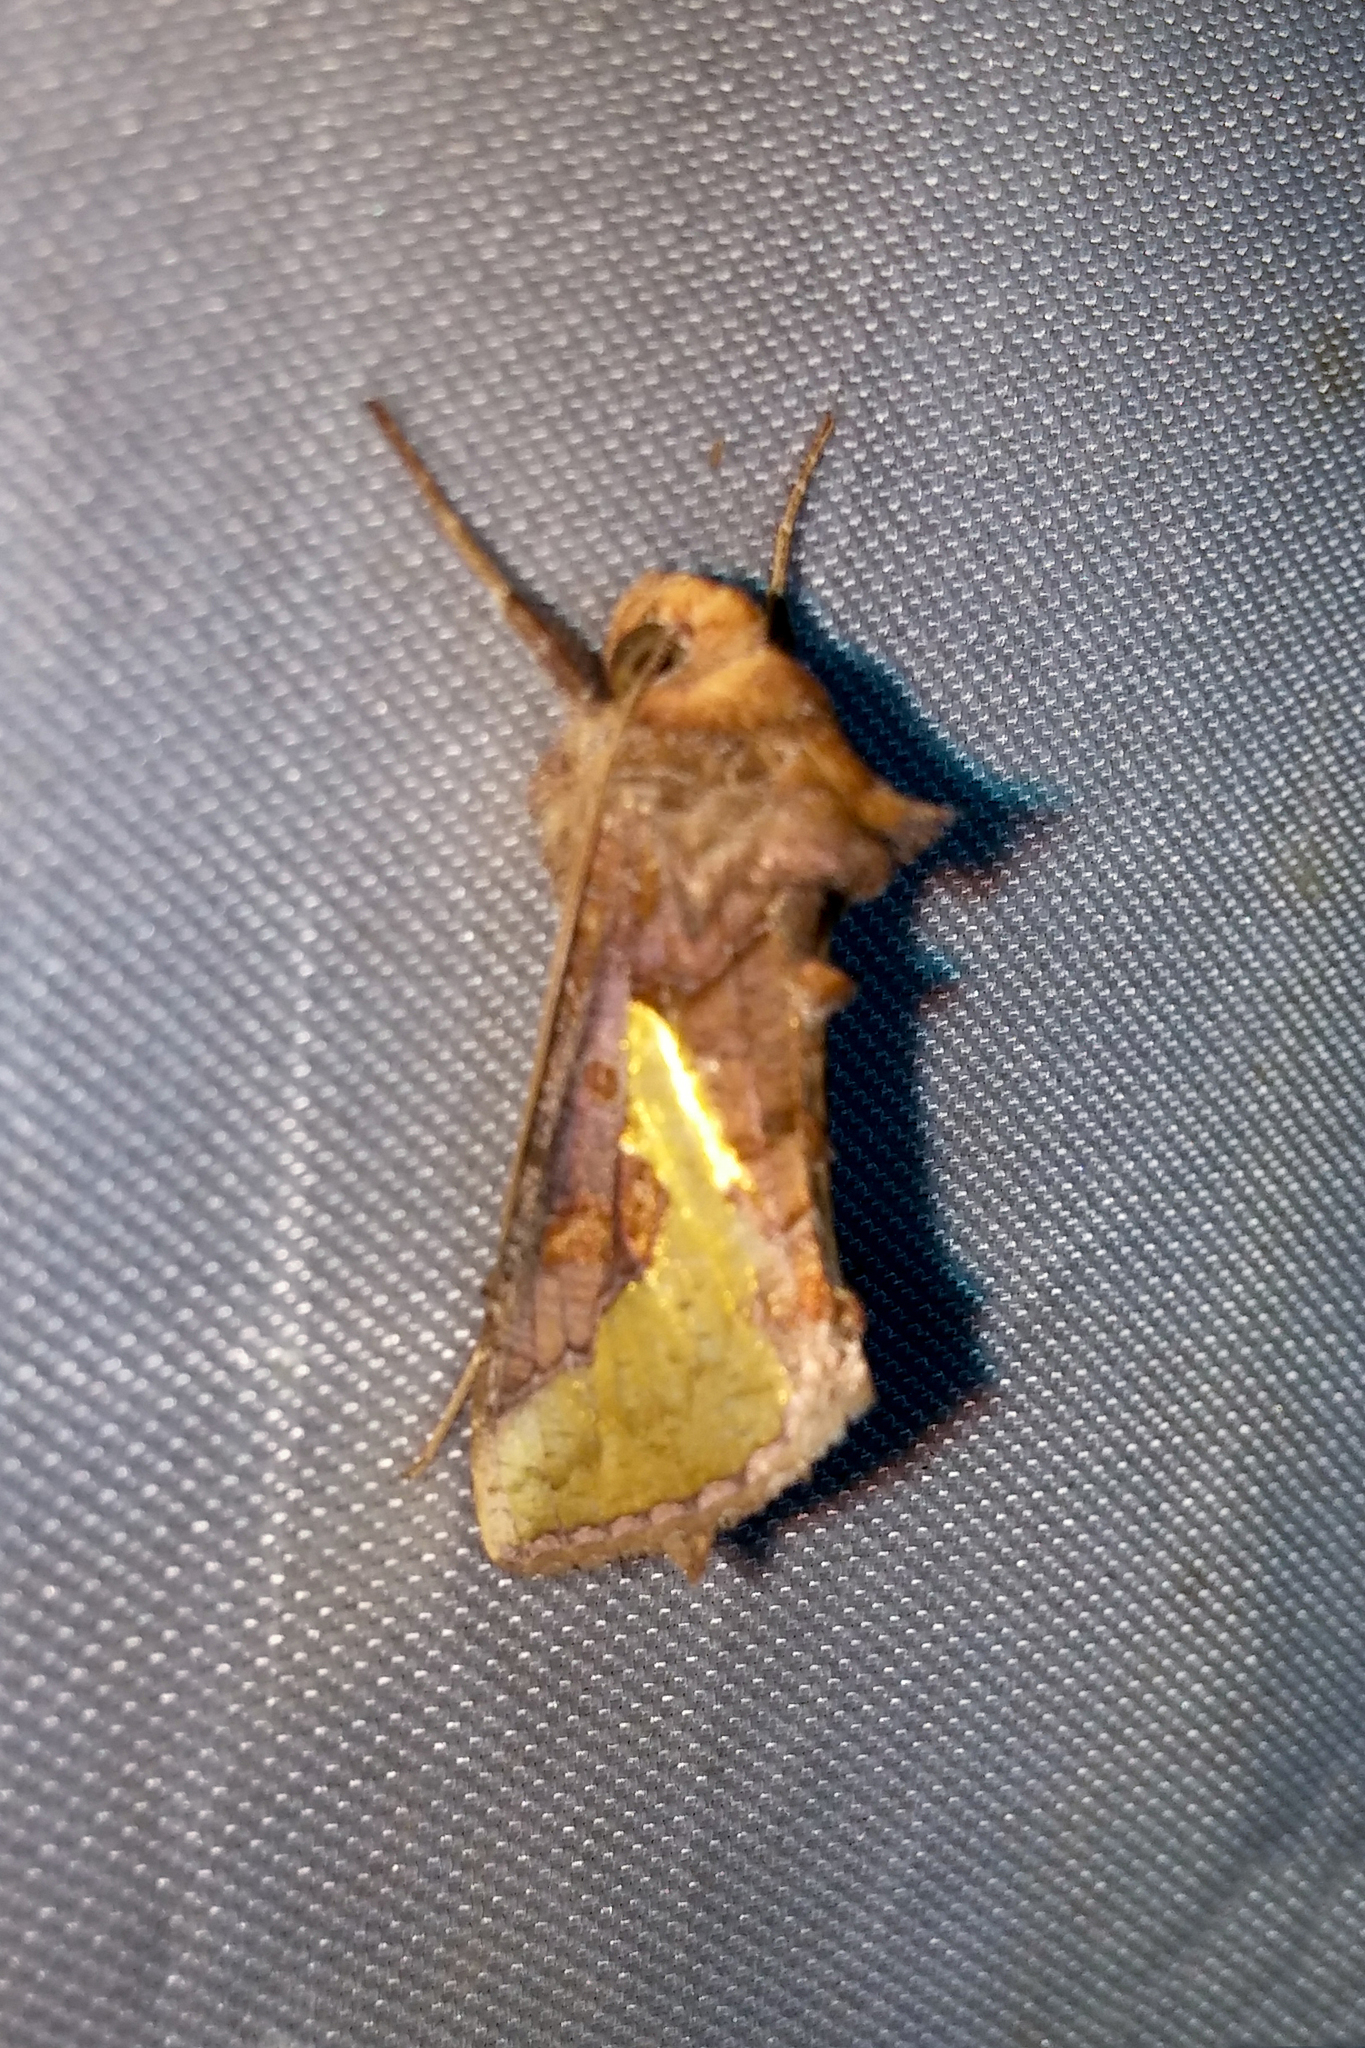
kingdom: Animalia
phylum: Arthropoda
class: Insecta
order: Lepidoptera
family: Noctuidae
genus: Thysanoplusia
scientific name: Thysanoplusia orichalcea
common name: Slender burnished brass, golden plusia
